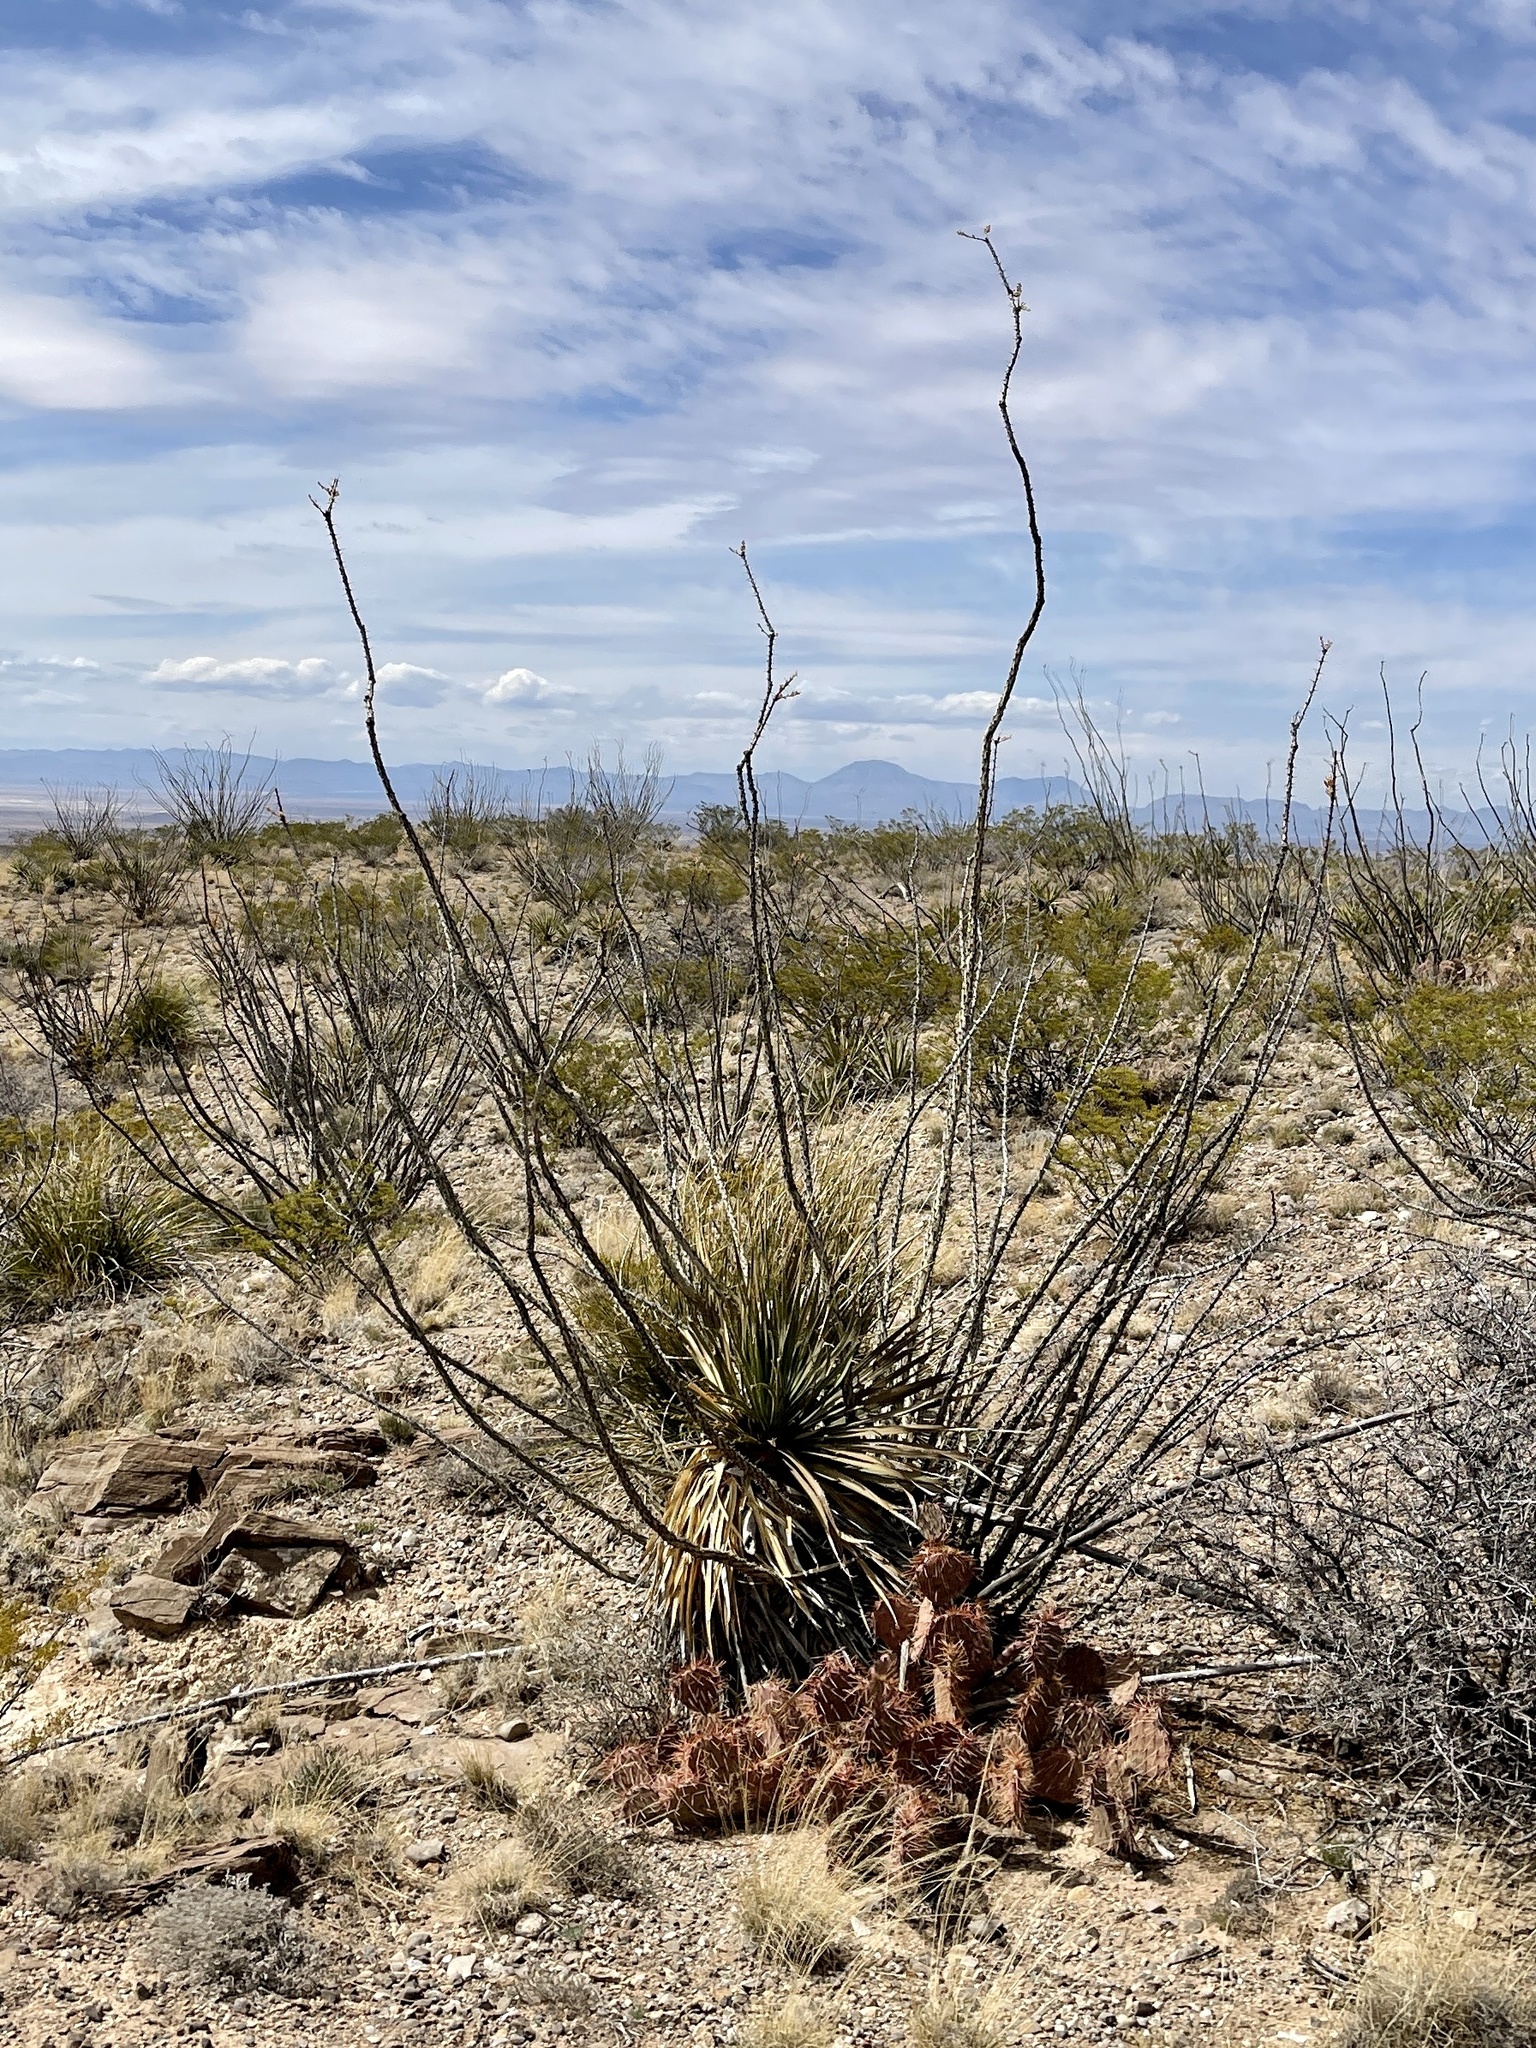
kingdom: Plantae
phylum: Tracheophyta
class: Magnoliopsida
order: Ericales
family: Fouquieriaceae
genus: Fouquieria
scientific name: Fouquieria splendens
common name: Vine-cactus
